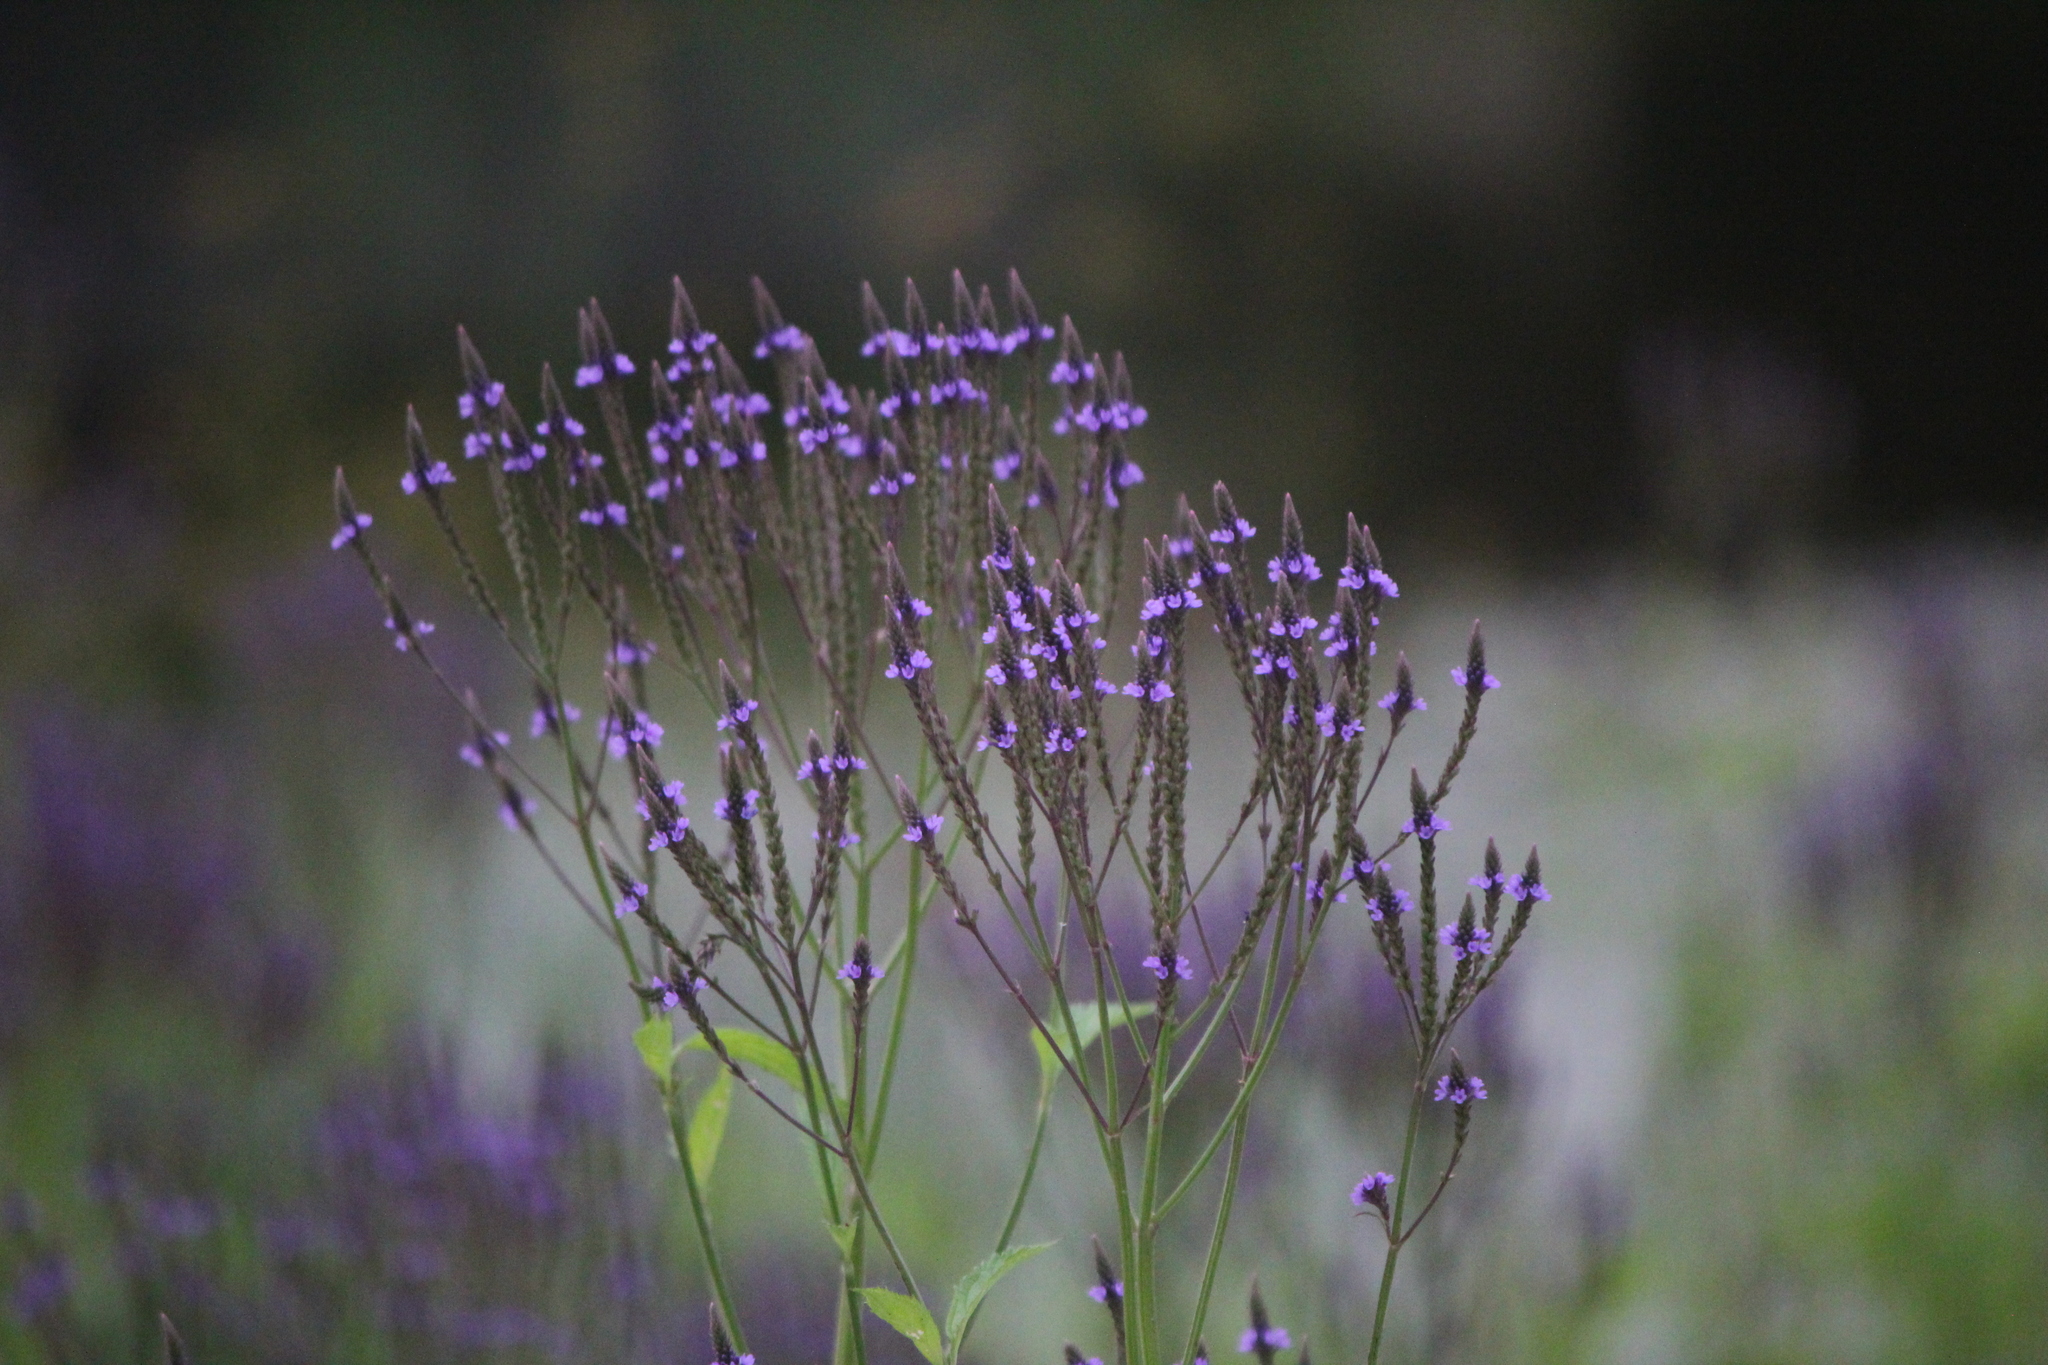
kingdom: Plantae
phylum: Tracheophyta
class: Magnoliopsida
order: Lamiales
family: Verbenaceae
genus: Verbena
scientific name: Verbena hastata
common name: American blue vervain
